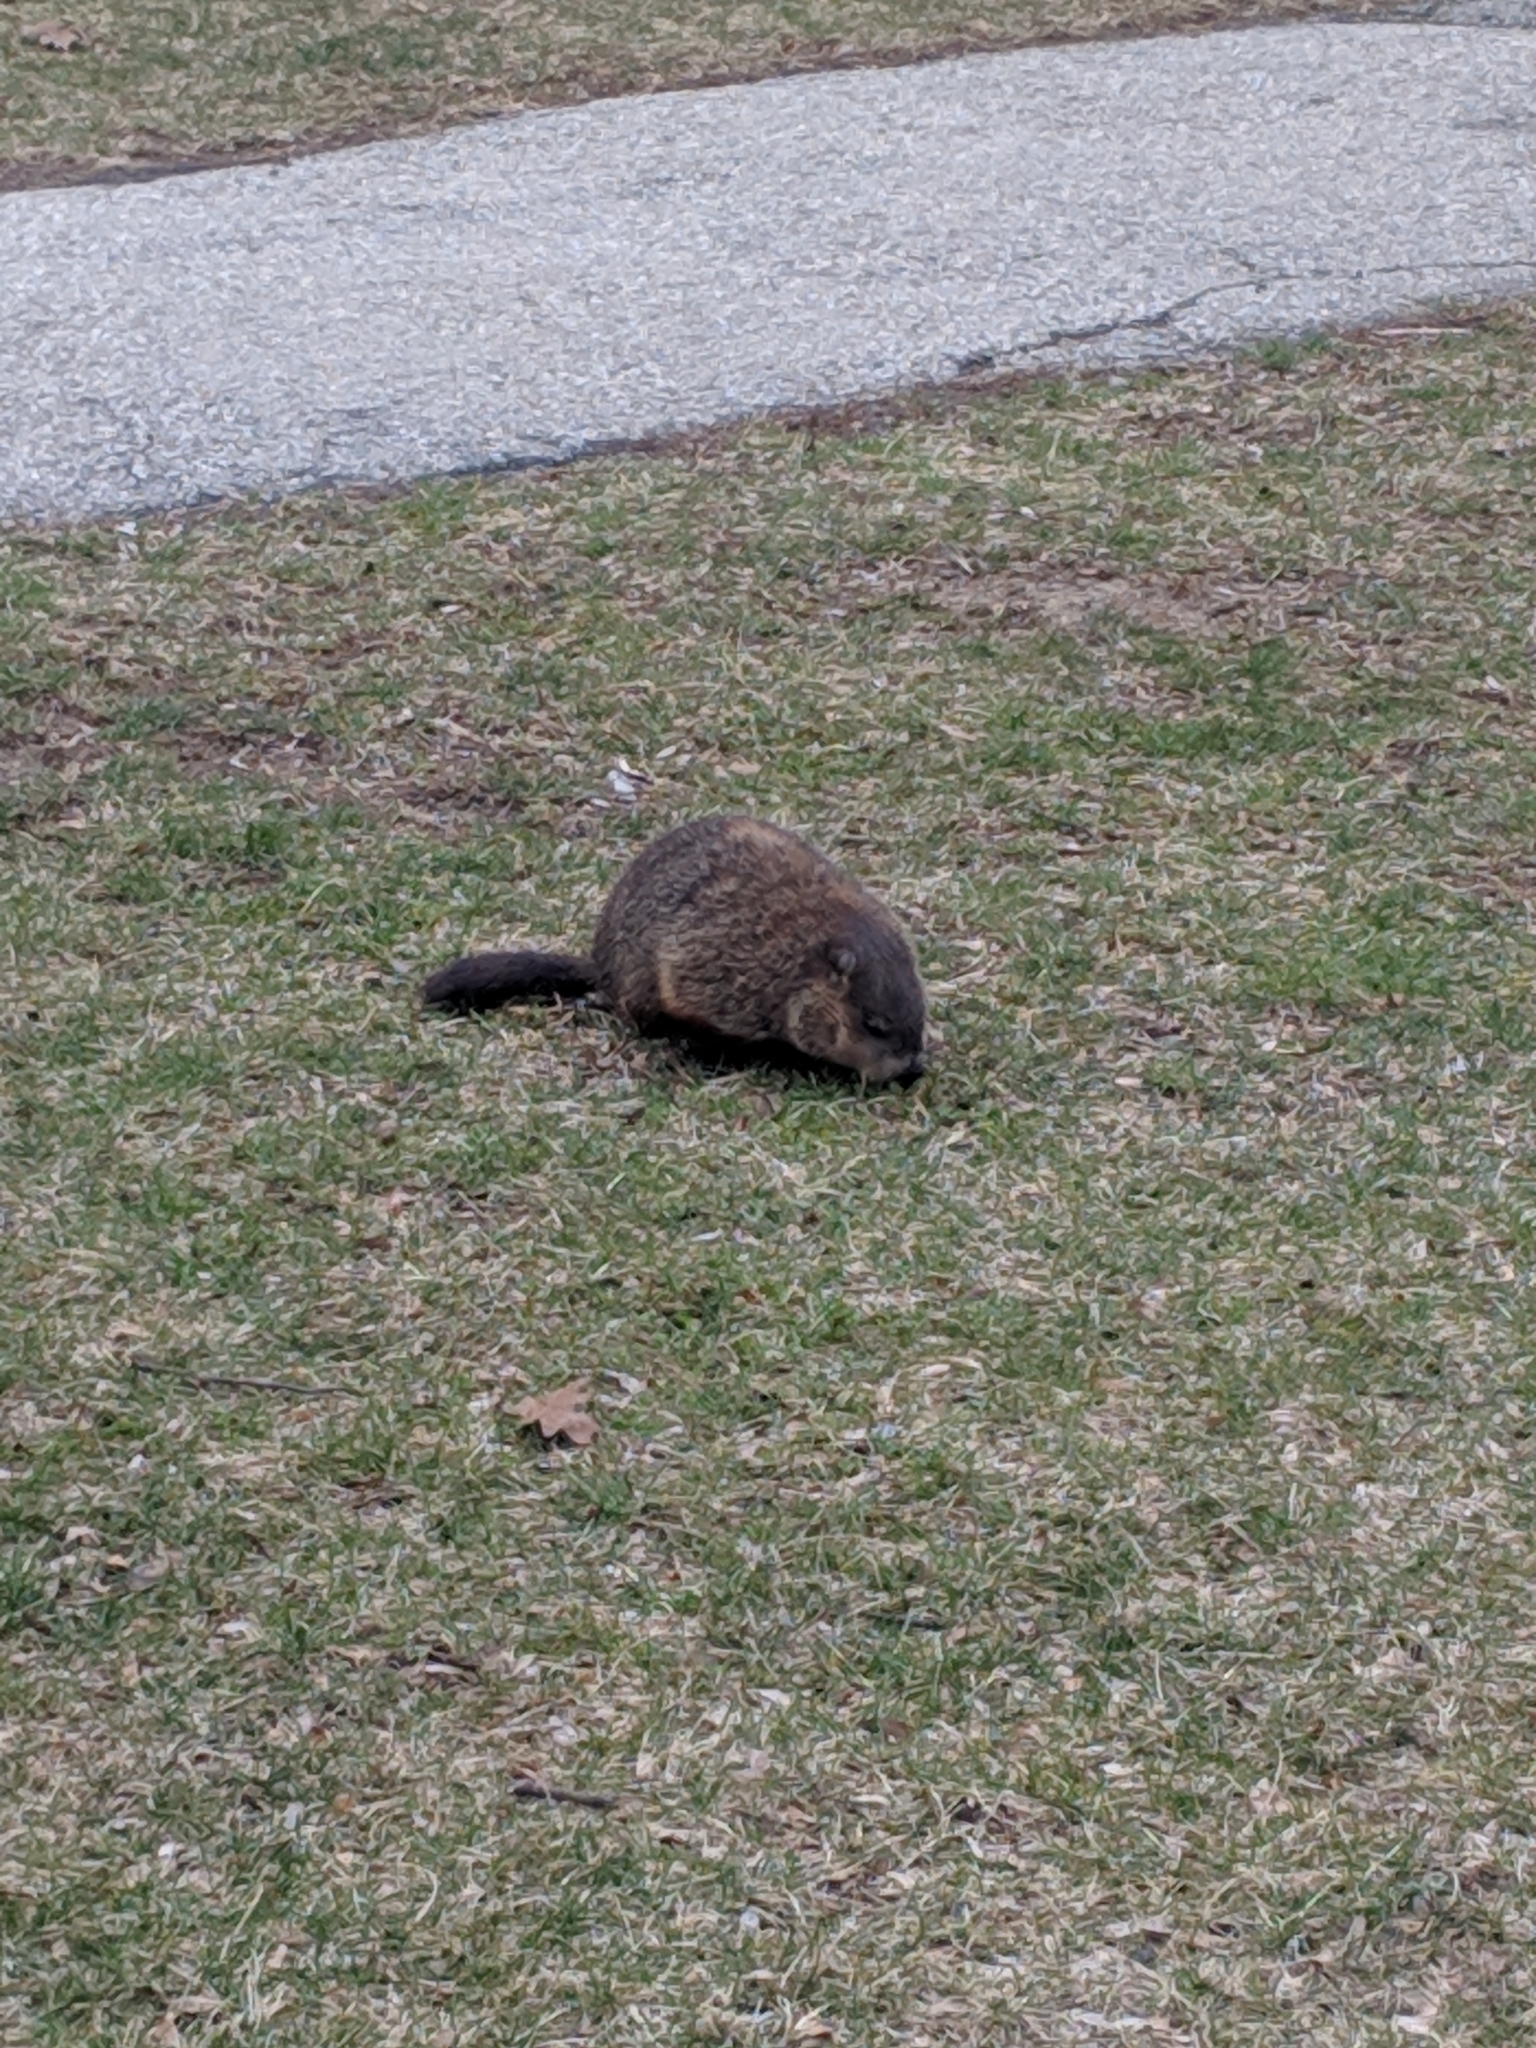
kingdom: Animalia
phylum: Chordata
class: Mammalia
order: Rodentia
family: Sciuridae
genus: Marmota
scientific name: Marmota monax
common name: Groundhog
